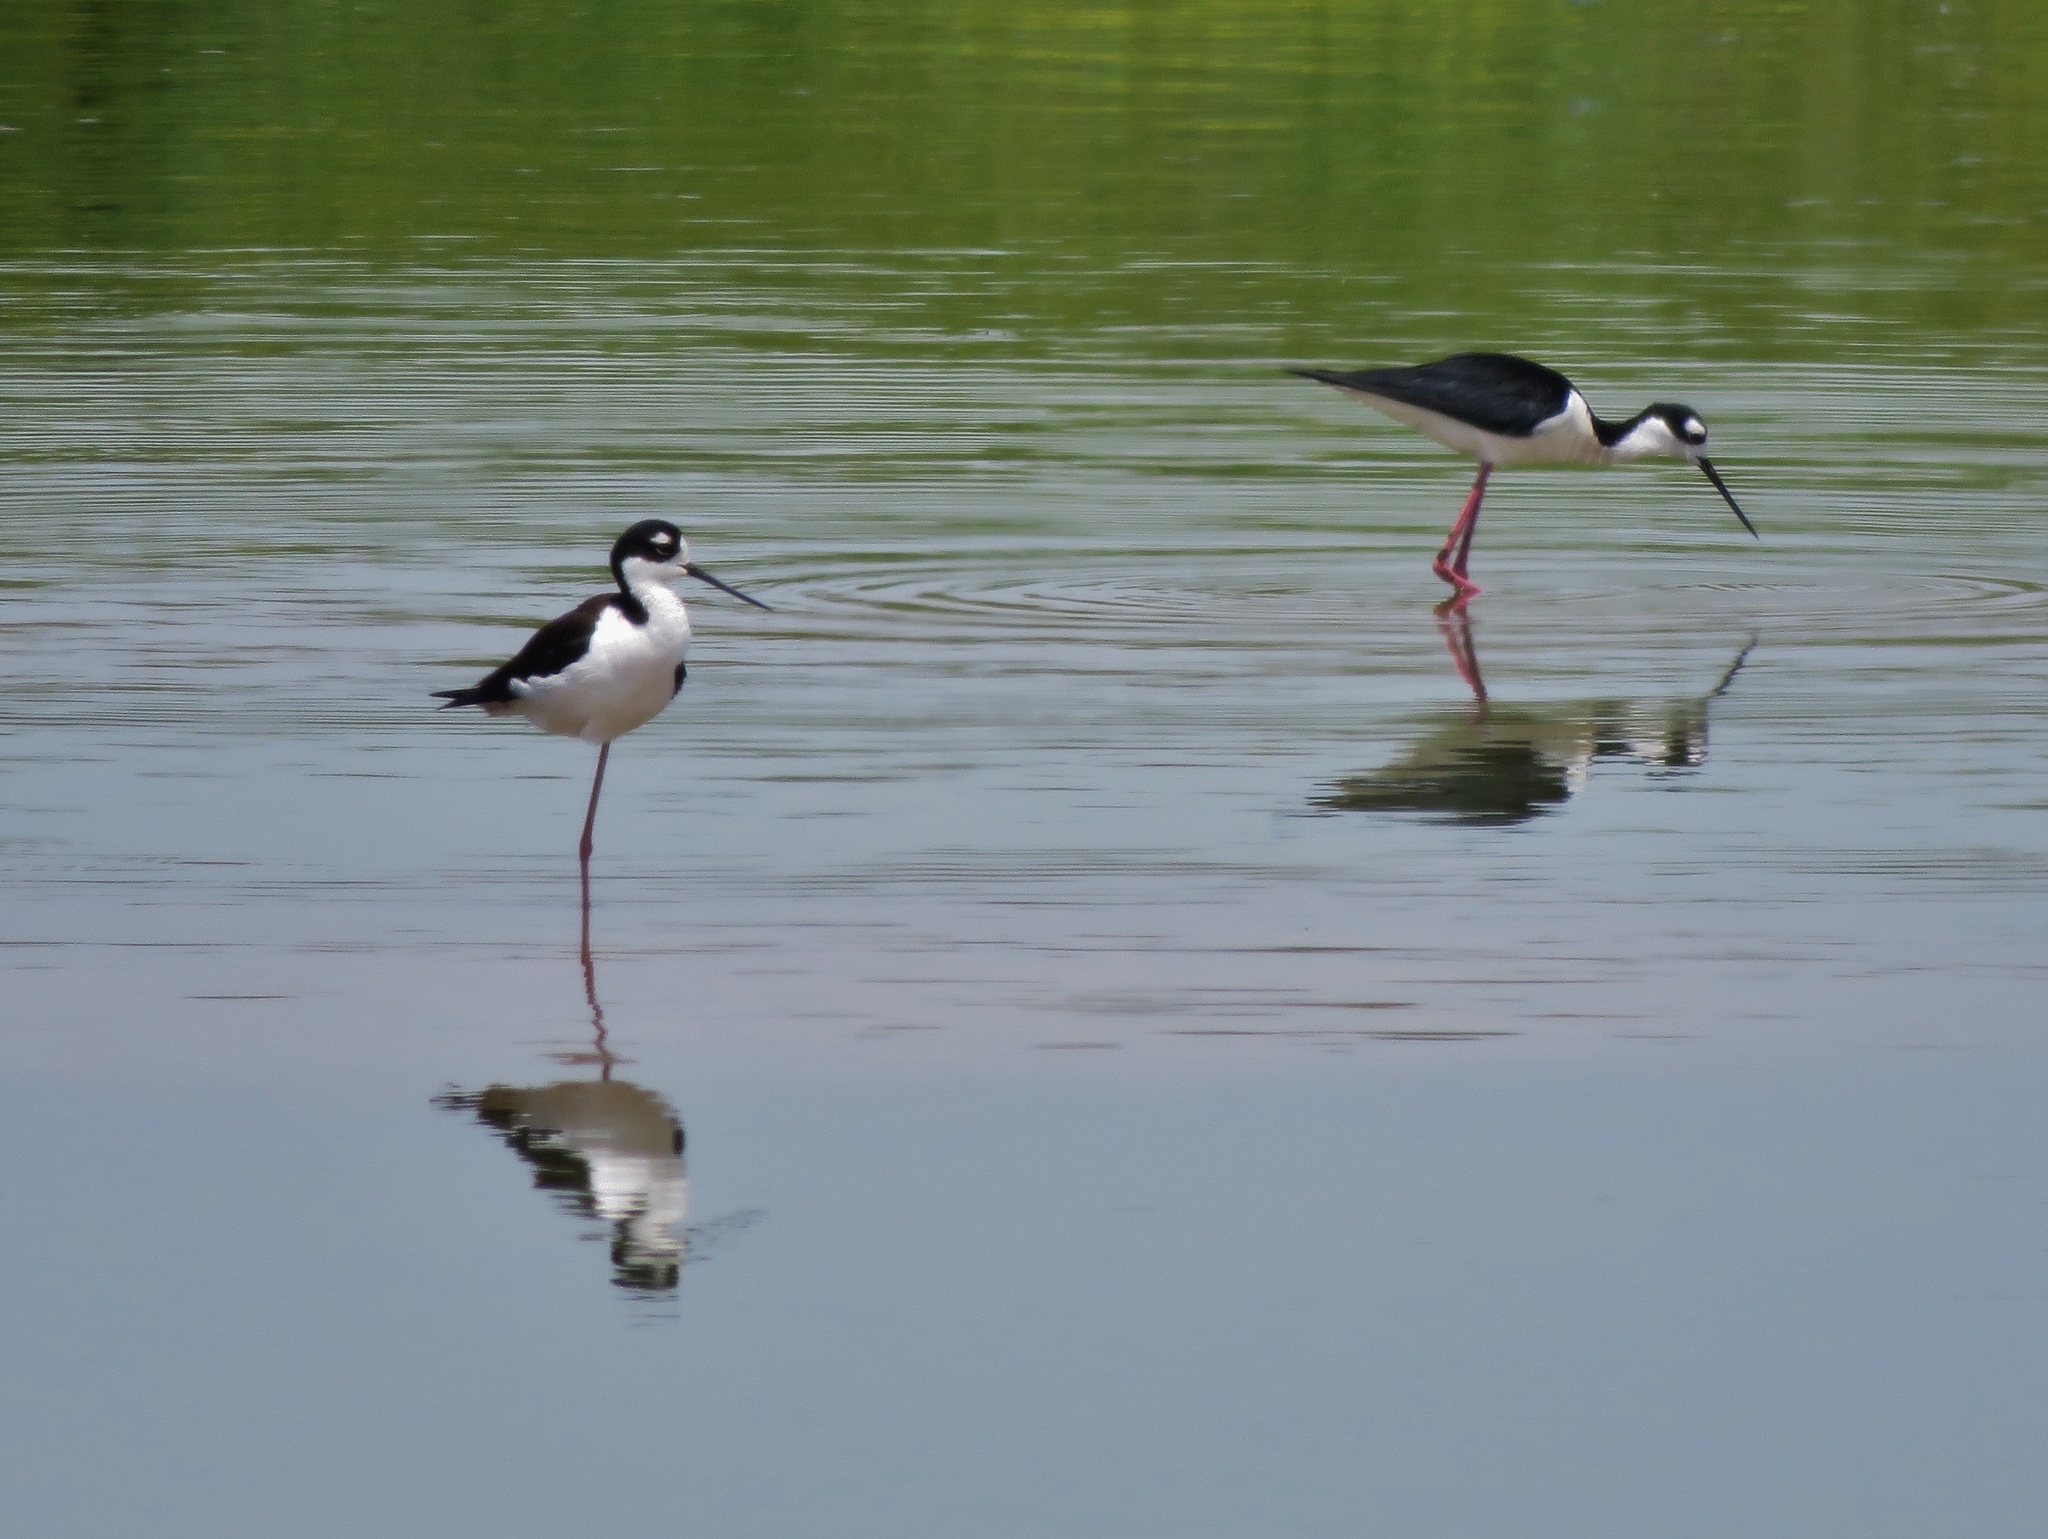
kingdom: Animalia
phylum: Chordata
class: Aves
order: Charadriiformes
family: Recurvirostridae
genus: Himantopus
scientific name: Himantopus mexicanus
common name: Black-necked stilt
